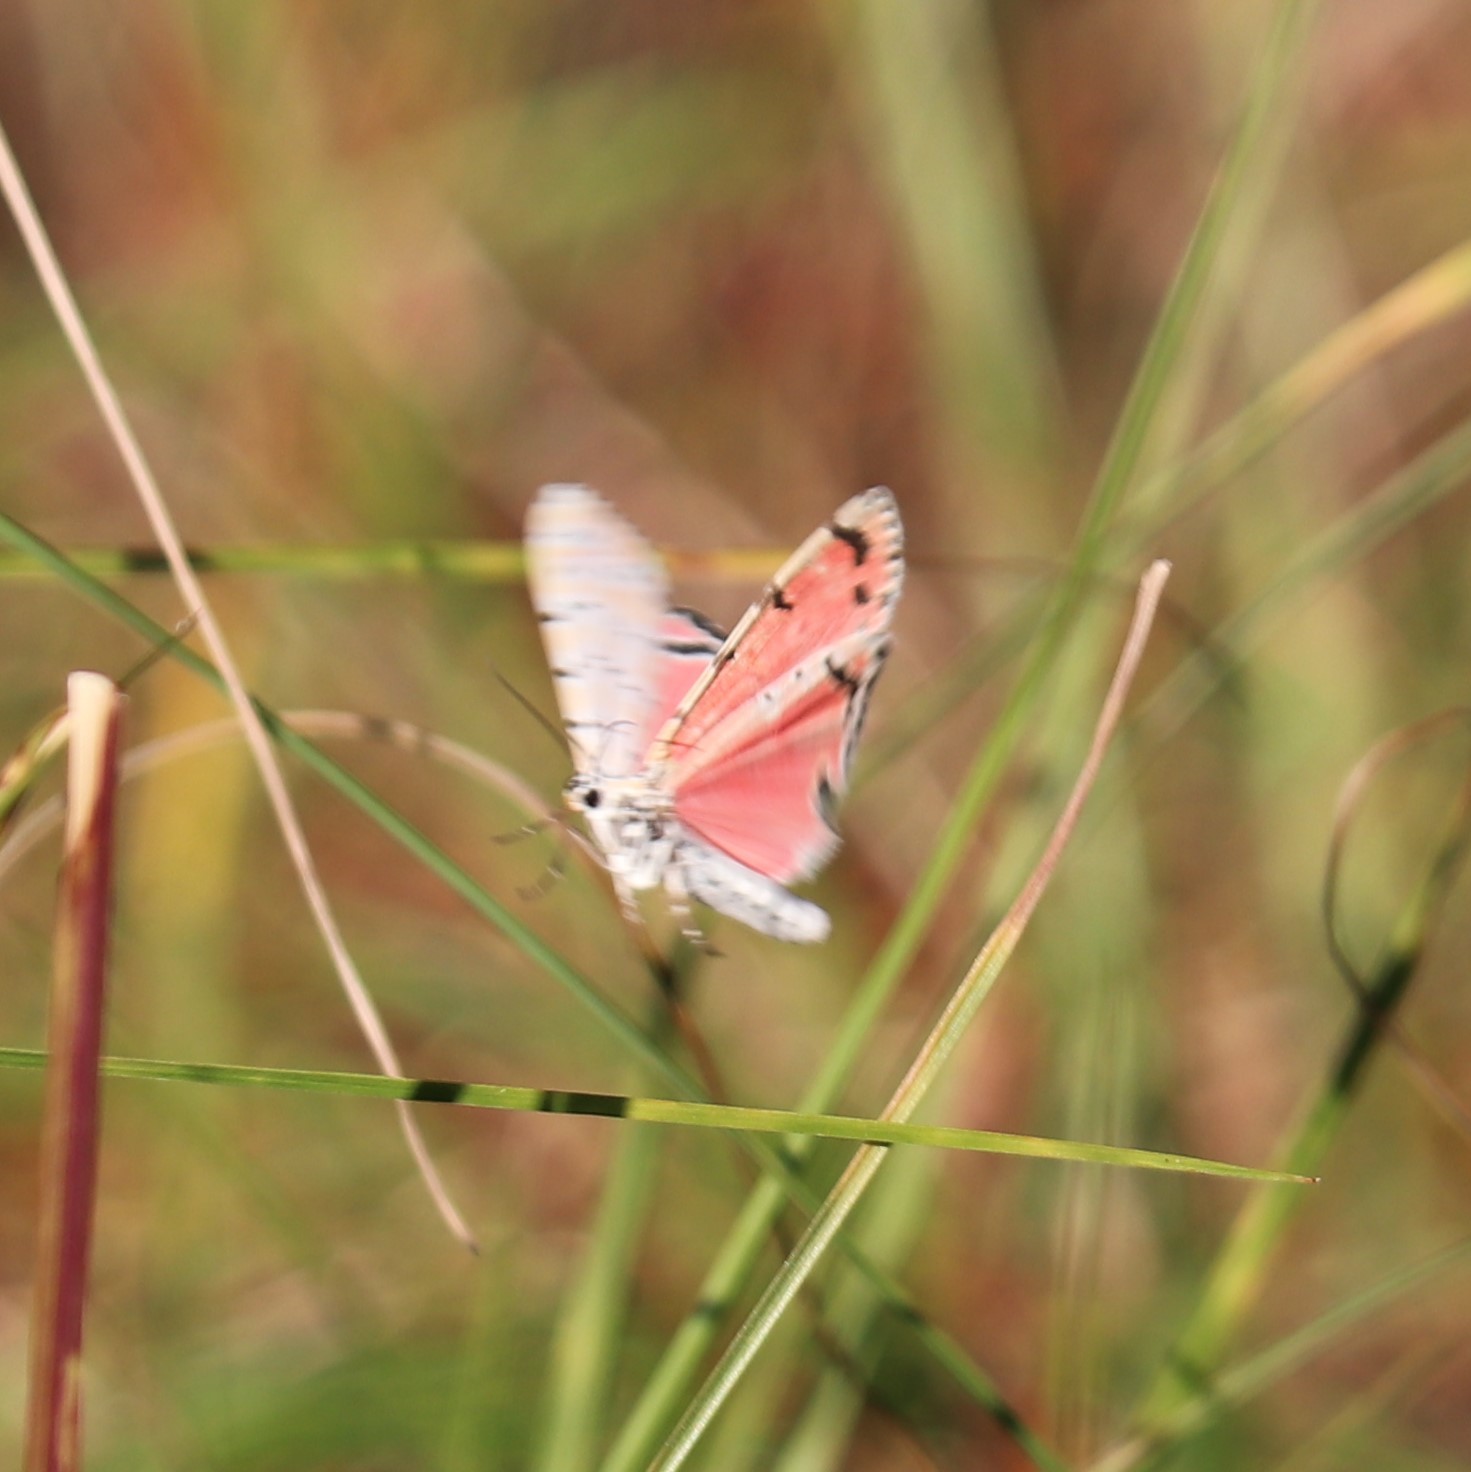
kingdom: Animalia
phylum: Arthropoda
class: Insecta
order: Lepidoptera
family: Erebidae
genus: Utetheisa
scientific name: Utetheisa ornatrix
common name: Beautiful utetheisa
